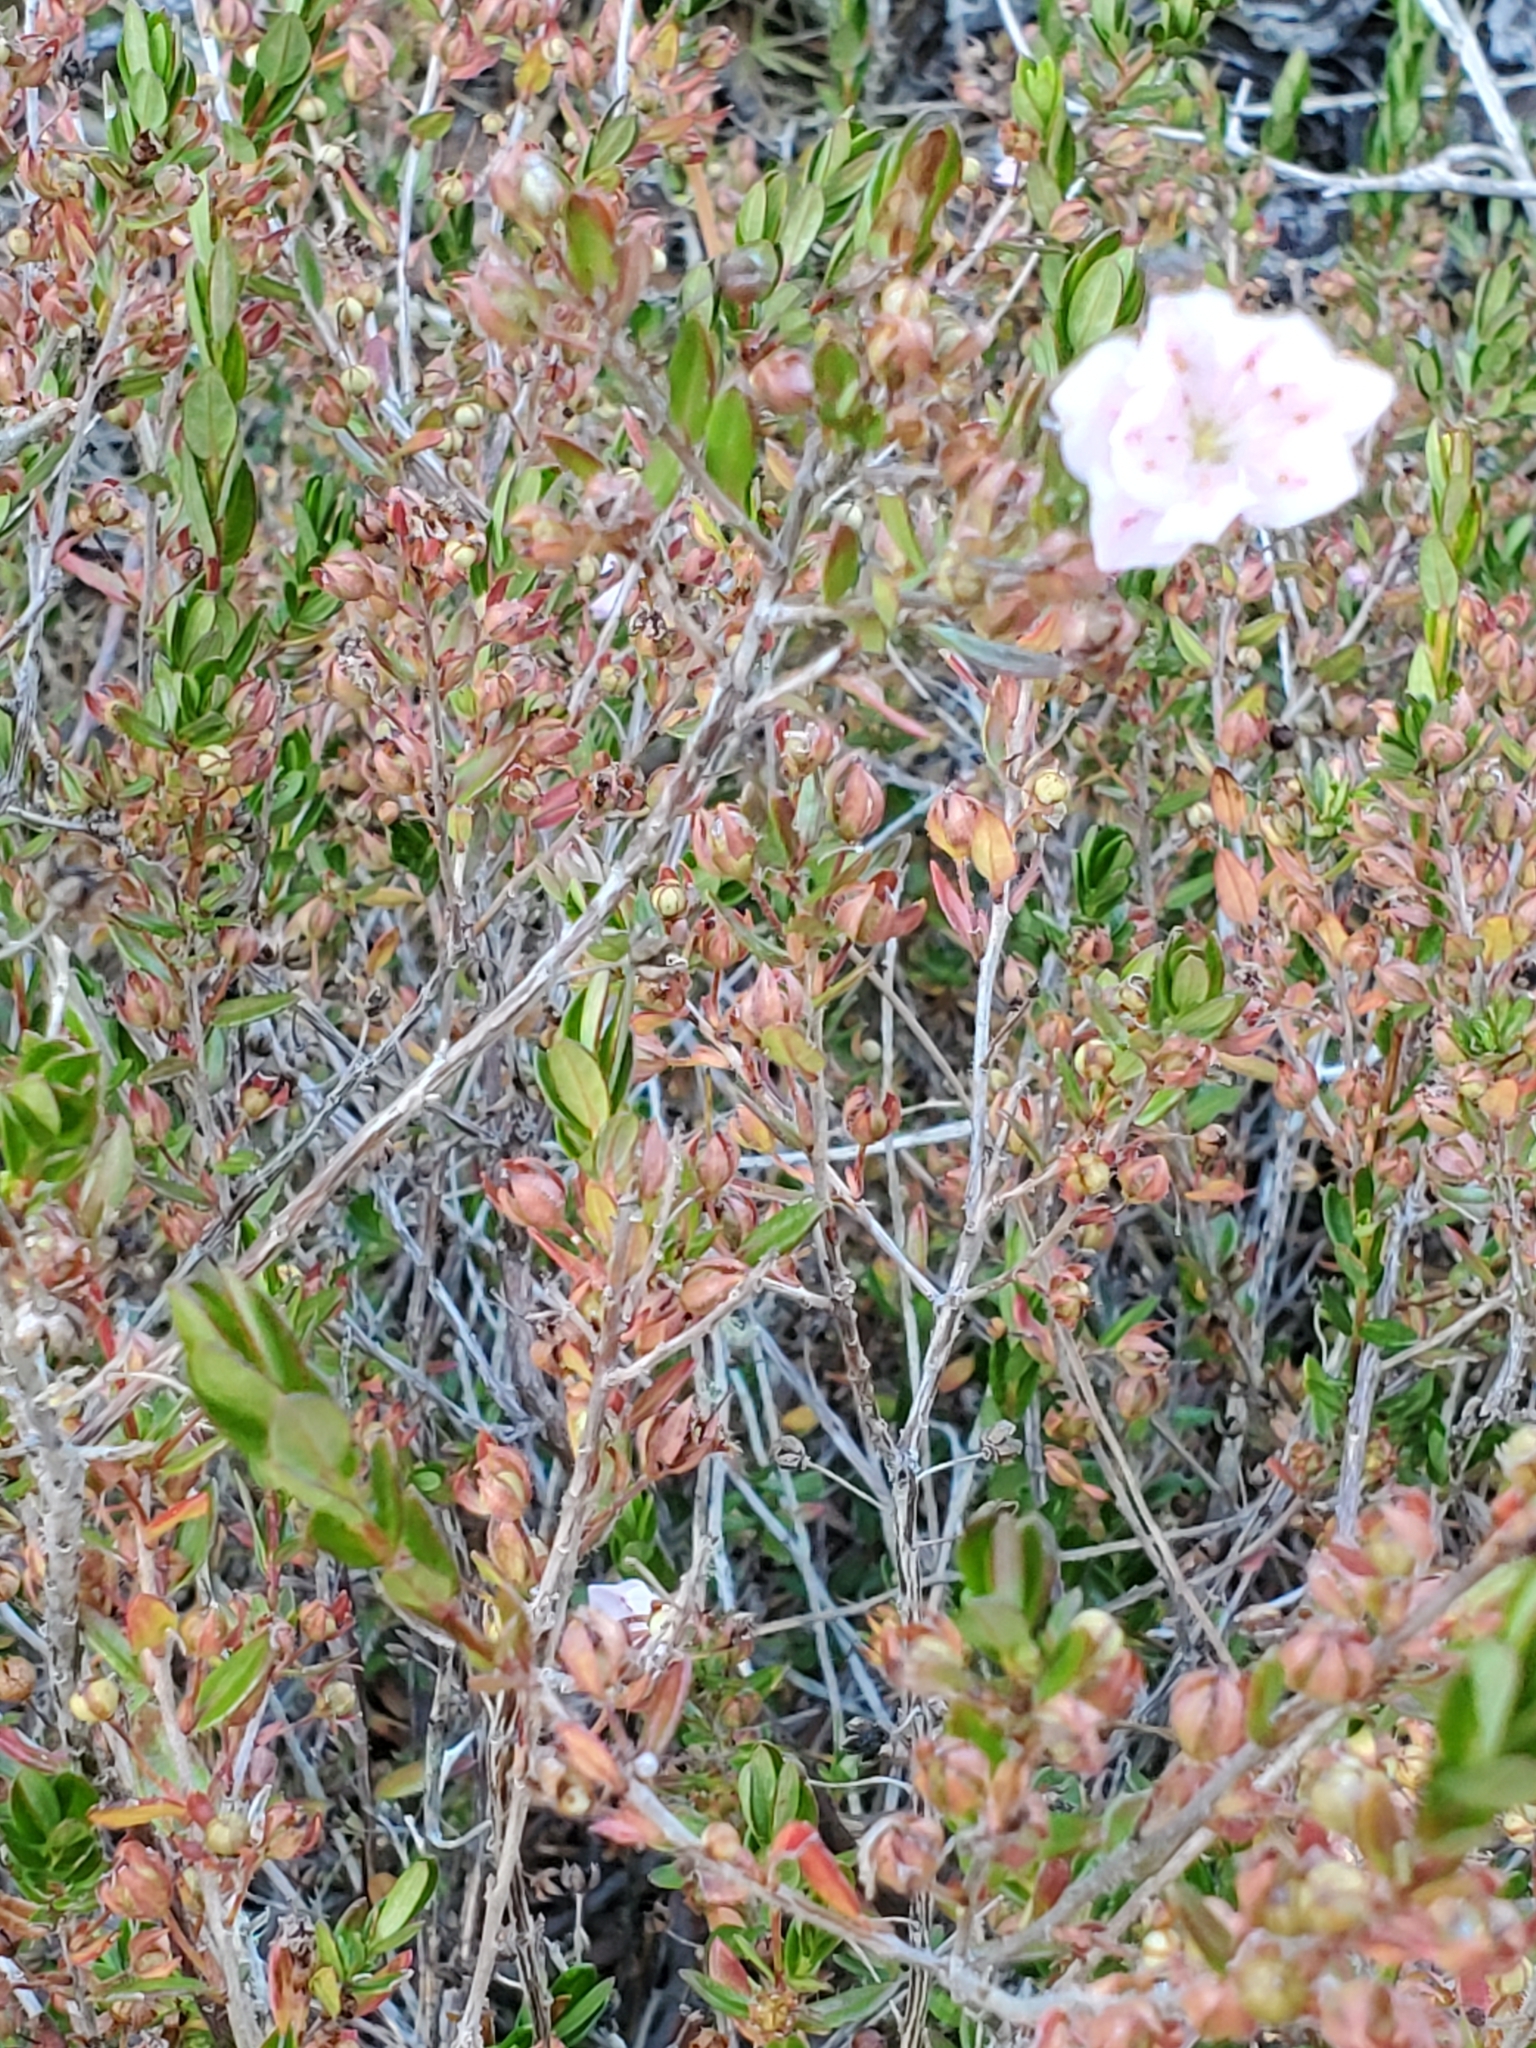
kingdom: Plantae
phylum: Tracheophyta
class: Magnoliopsida
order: Ericales
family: Ericaceae
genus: Kalmia
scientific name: Kalmia hirsuta
